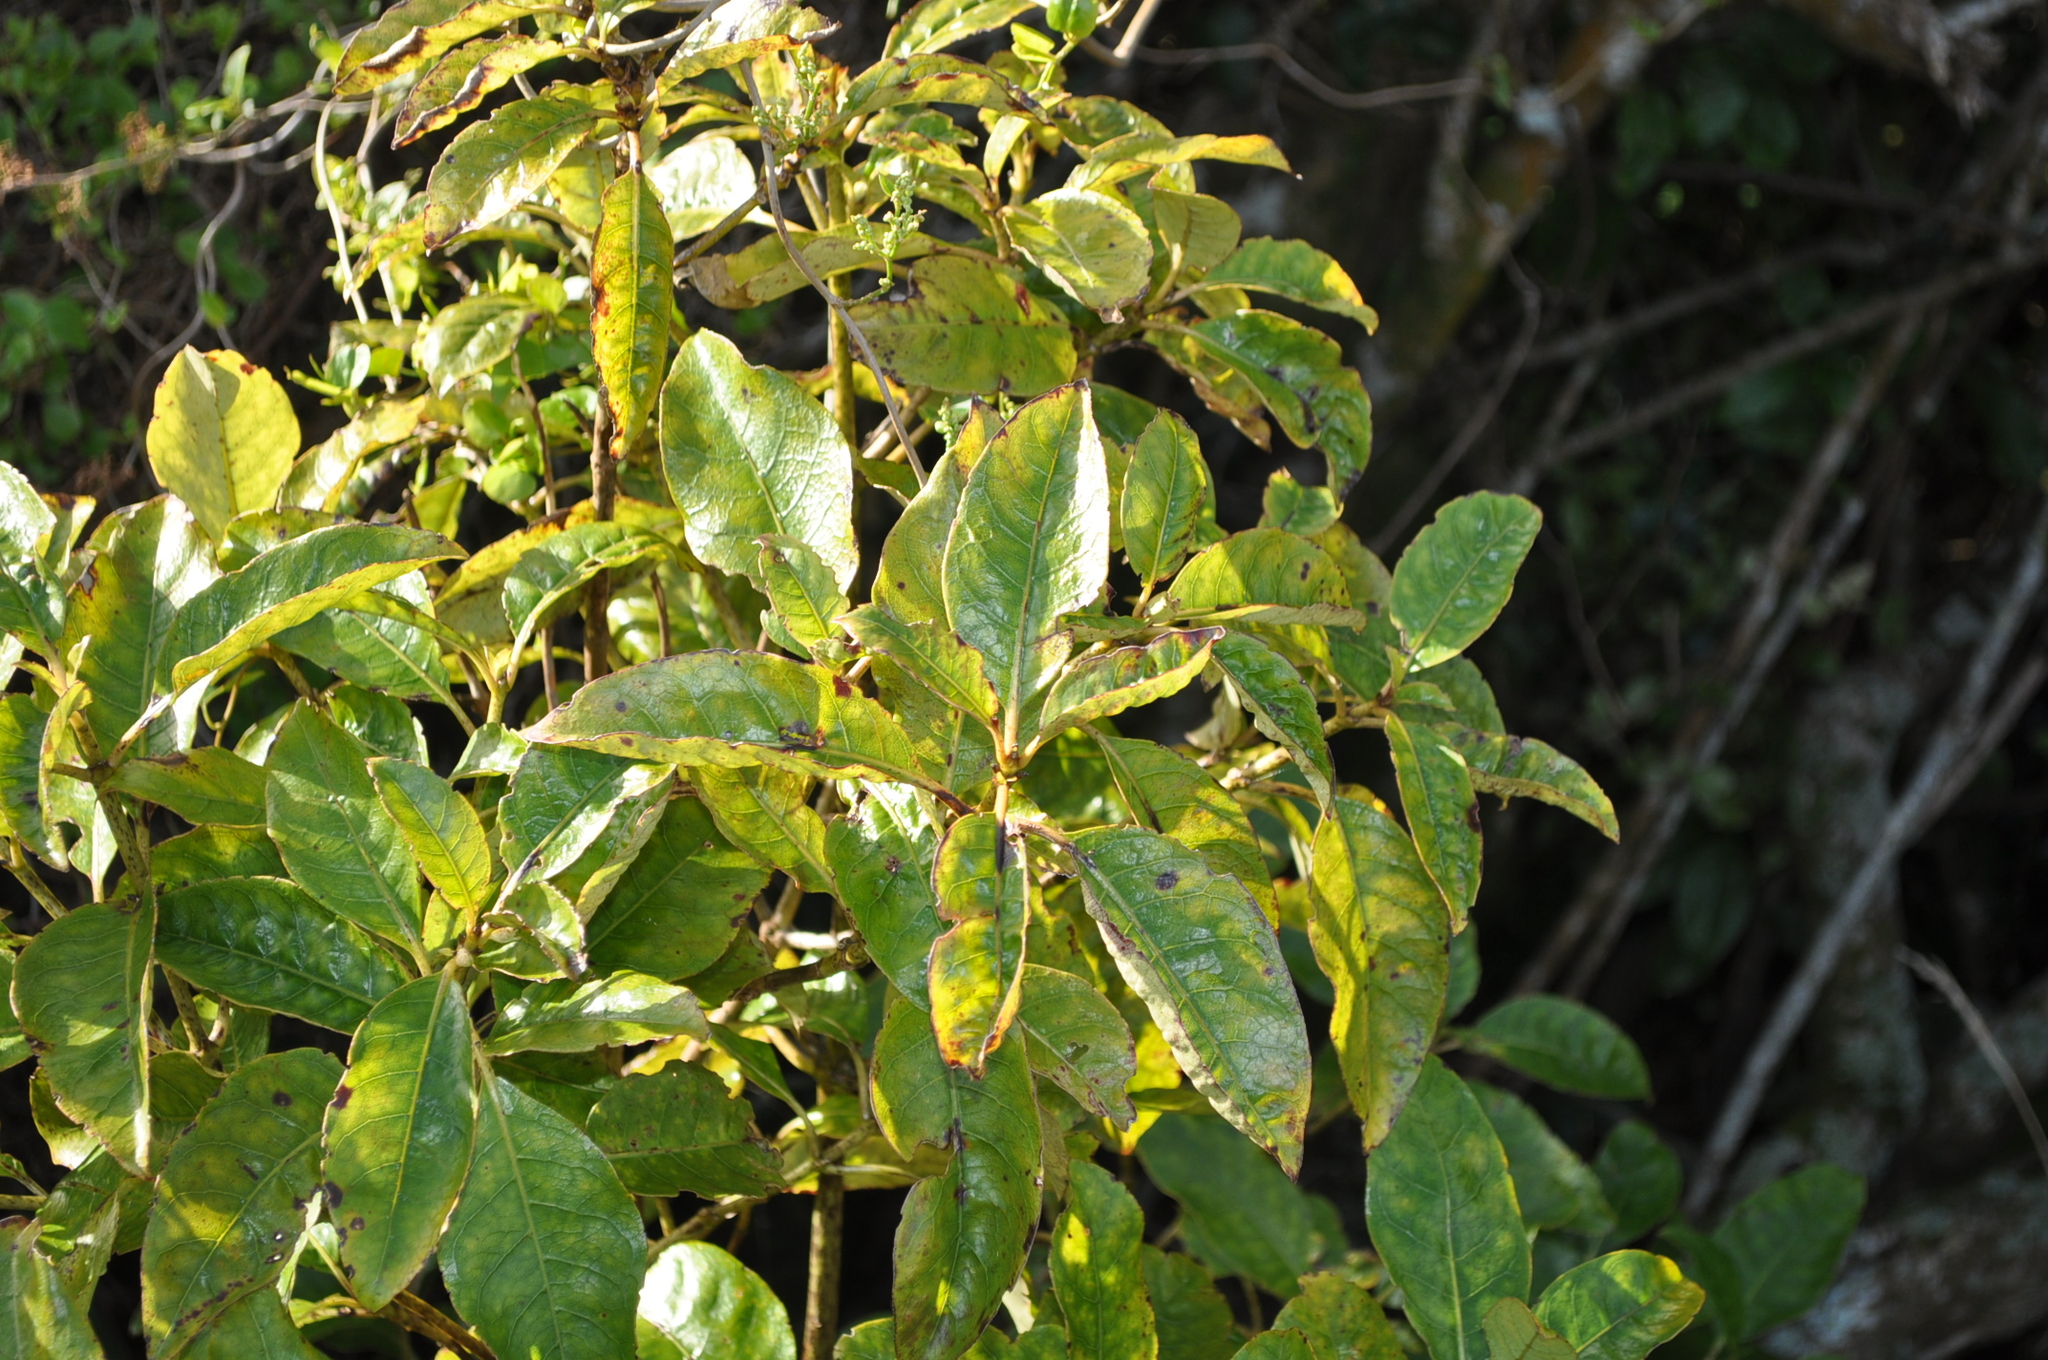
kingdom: Plantae
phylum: Tracheophyta
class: Magnoliopsida
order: Gentianales
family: Rubiaceae
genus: Coprosma
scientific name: Coprosma autumnalis
